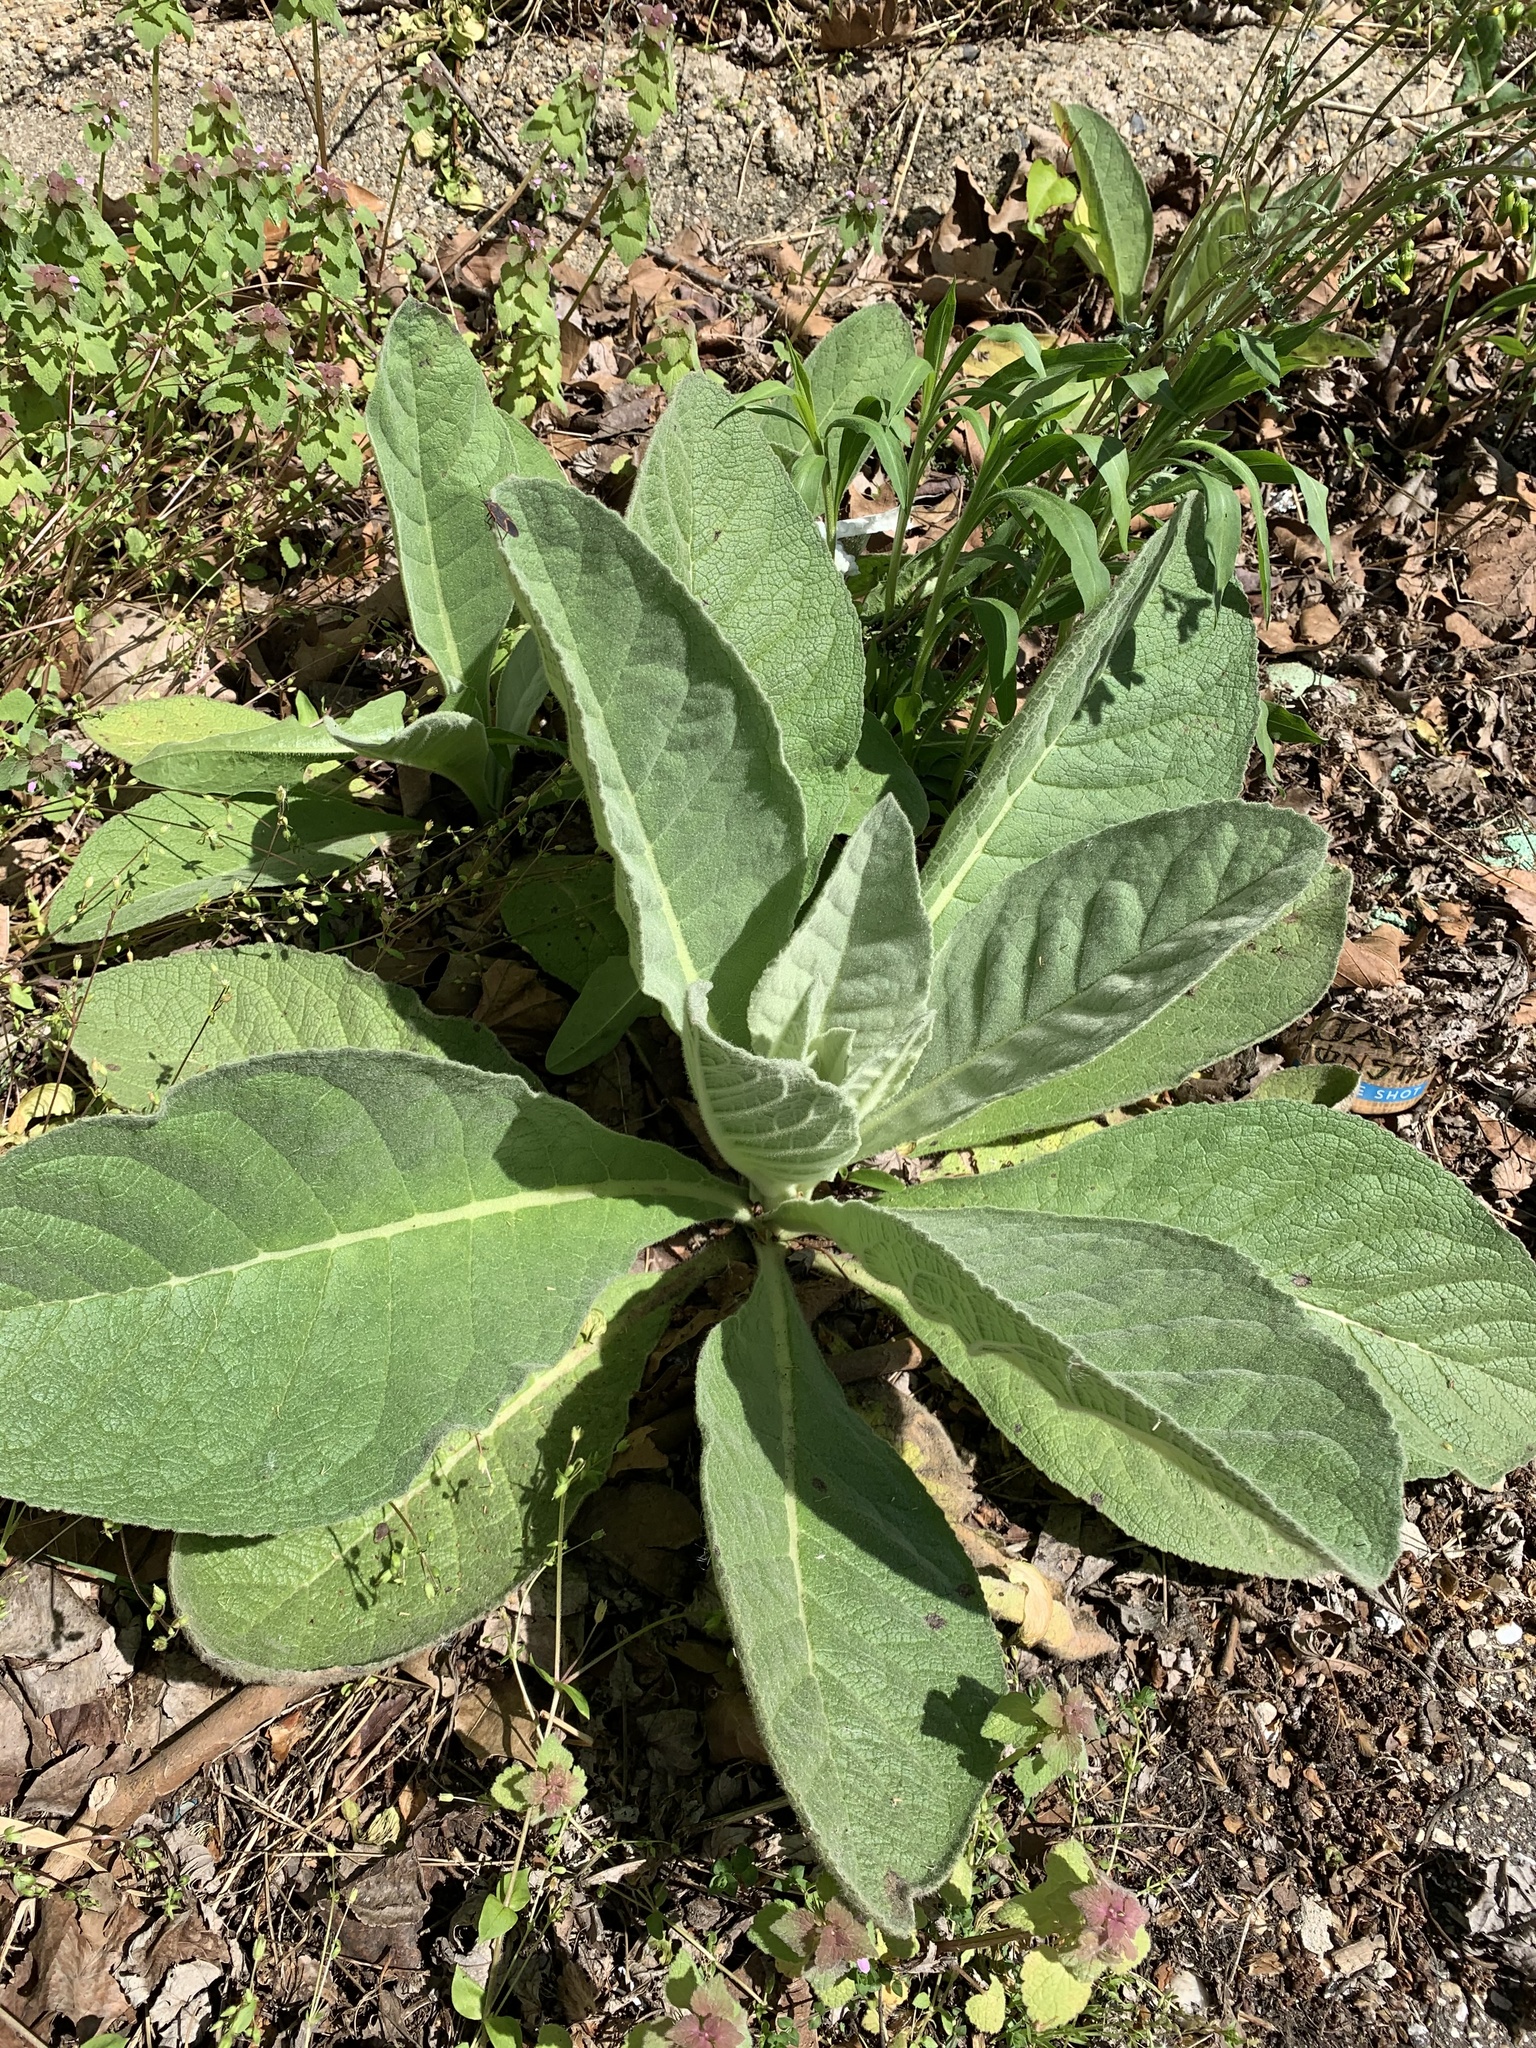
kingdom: Plantae
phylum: Tracheophyta
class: Magnoliopsida
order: Lamiales
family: Scrophulariaceae
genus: Verbascum
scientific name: Verbascum thapsus
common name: Common mullein
